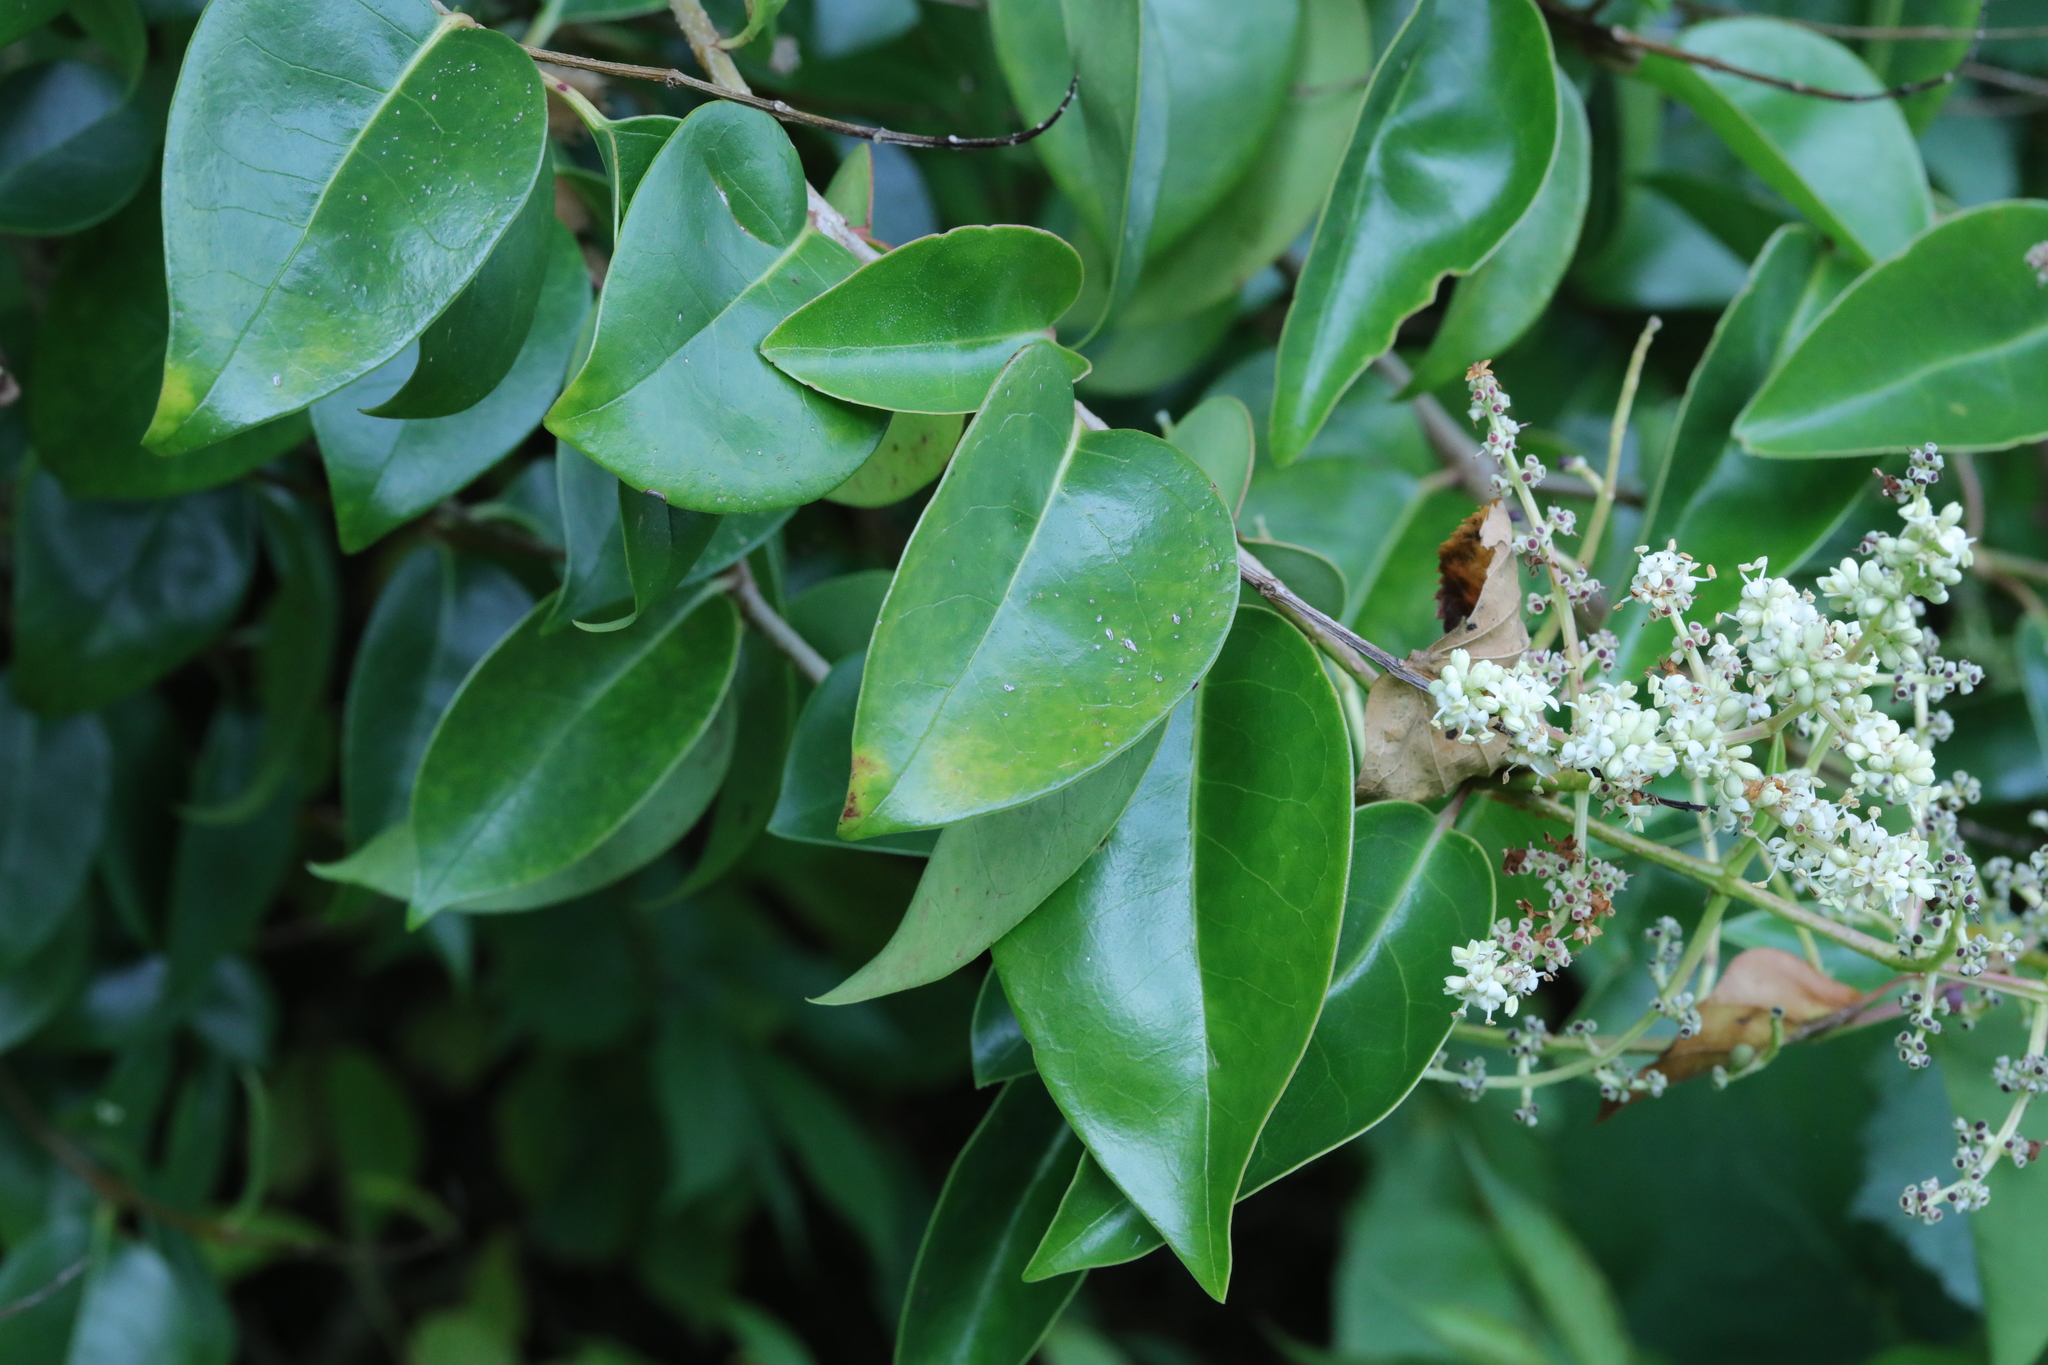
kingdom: Plantae
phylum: Tracheophyta
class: Magnoliopsida
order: Lamiales
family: Oleaceae
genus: Ligustrum
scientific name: Ligustrum lucidum
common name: Glossy privet
